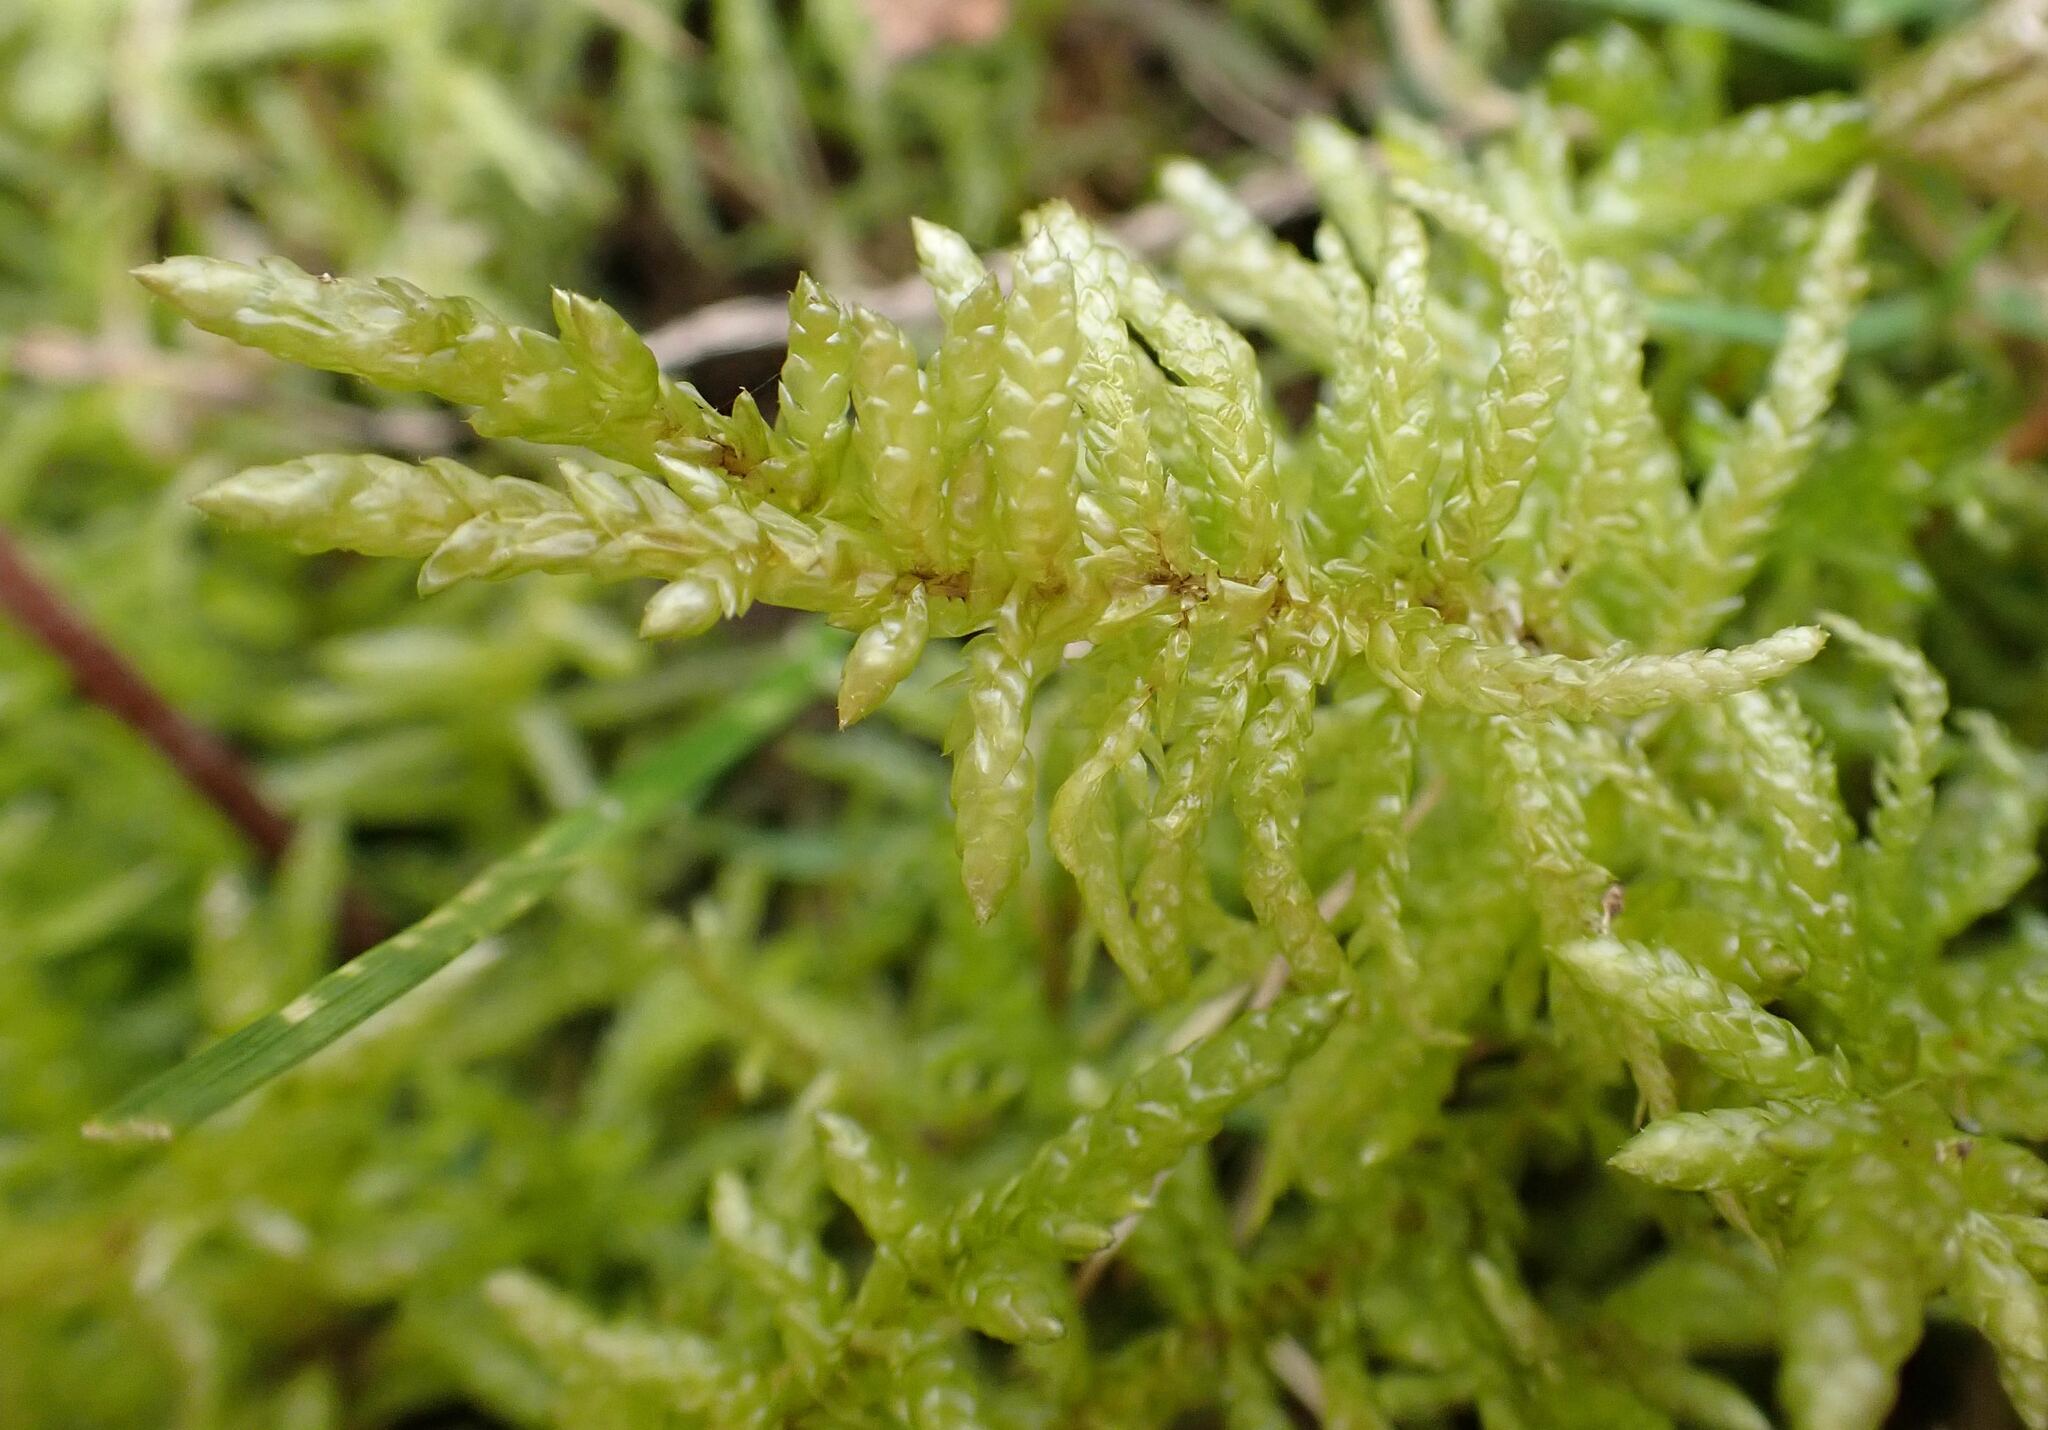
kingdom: Plantae
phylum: Bryophyta
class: Bryopsida
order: Hypnales
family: Brachytheciaceae
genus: Pseudoscleropodium
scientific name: Pseudoscleropodium purum
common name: Neat feather-moss
